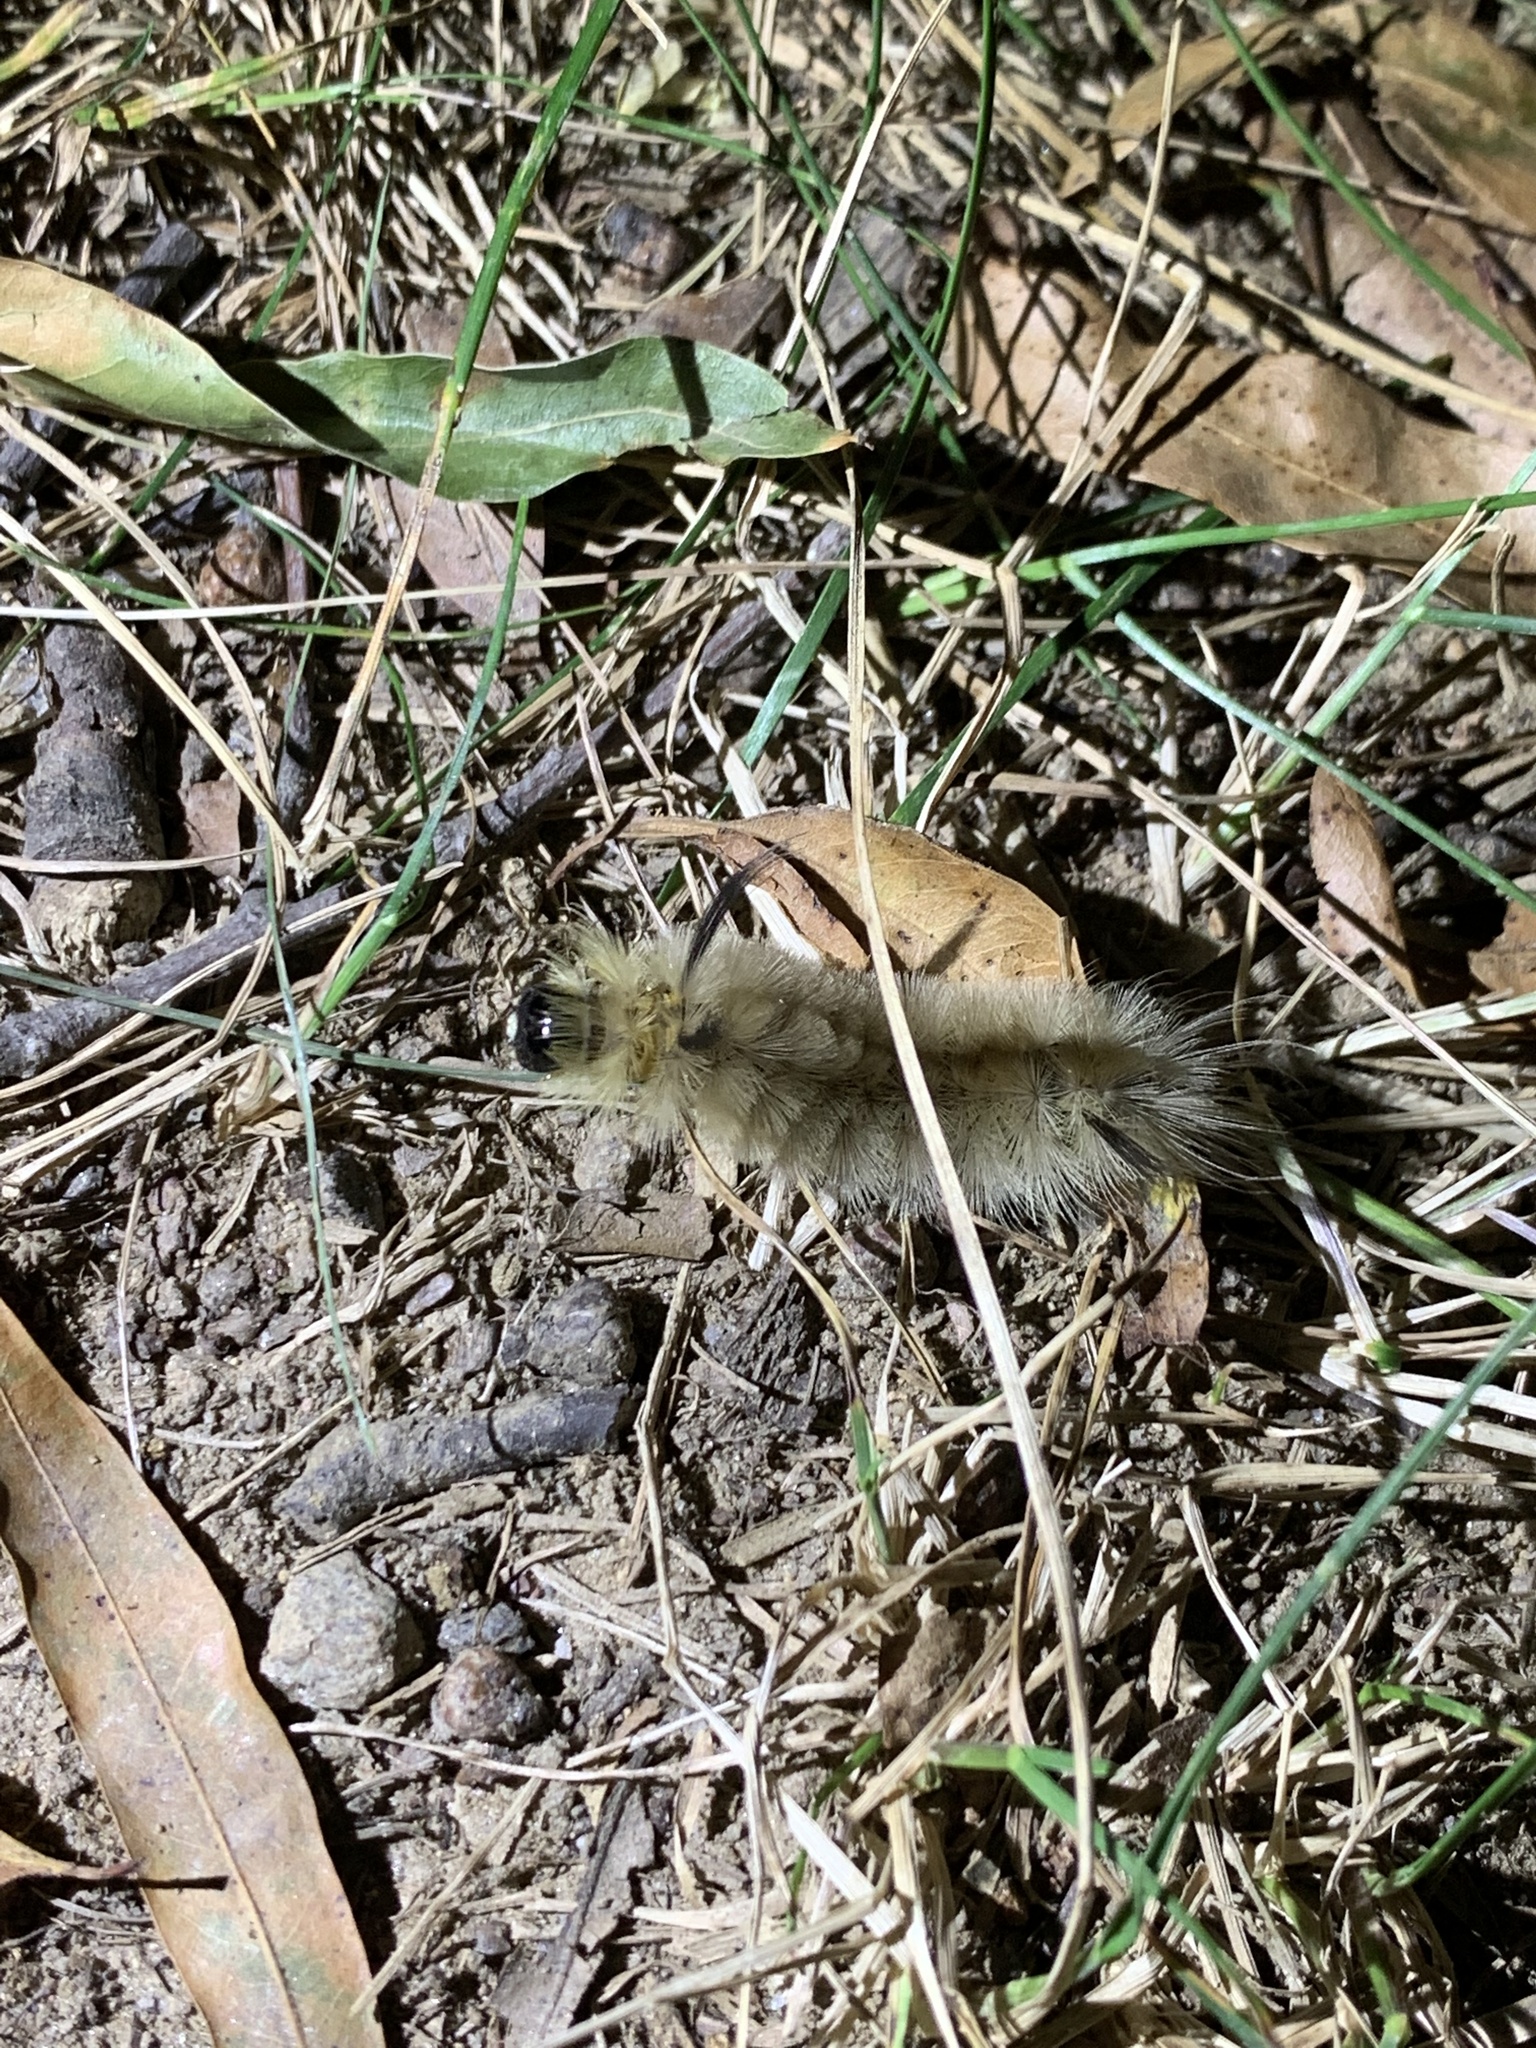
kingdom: Animalia
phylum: Arthropoda
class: Insecta
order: Lepidoptera
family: Erebidae
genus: Halysidota
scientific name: Halysidota tessellaris
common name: Banded tussock moth
